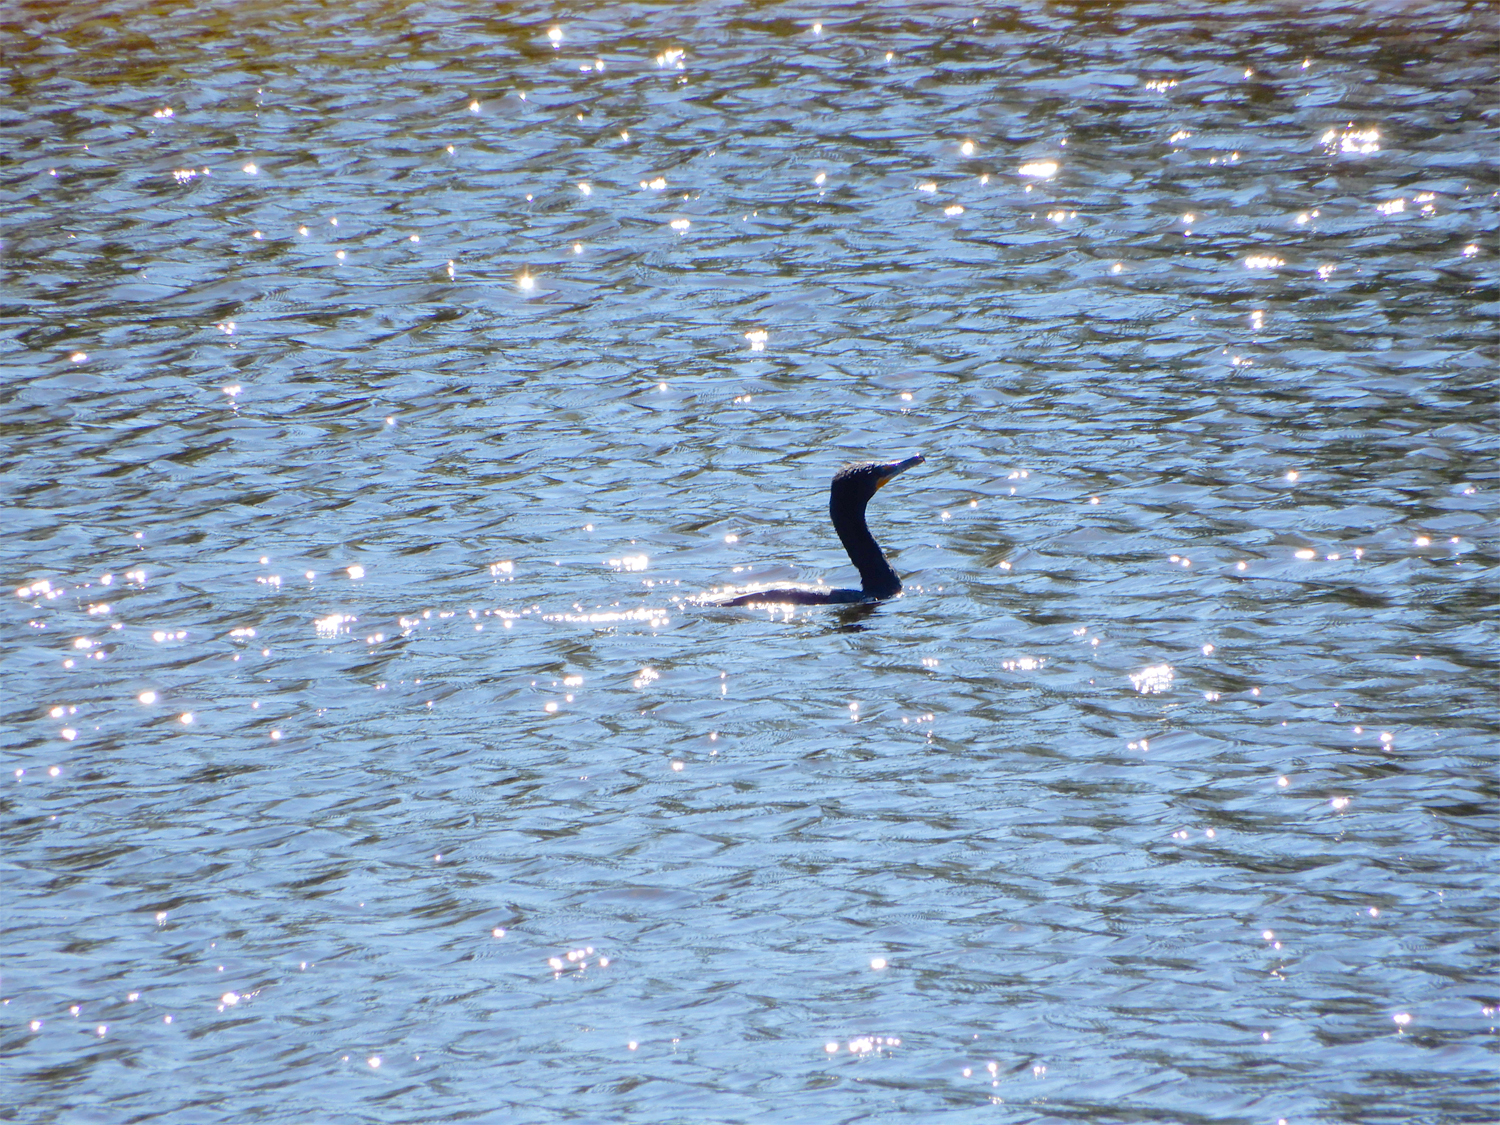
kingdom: Animalia
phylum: Chordata
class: Aves
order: Suliformes
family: Phalacrocoracidae
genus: Phalacrocorax
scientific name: Phalacrocorax auritus
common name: Double-crested cormorant
